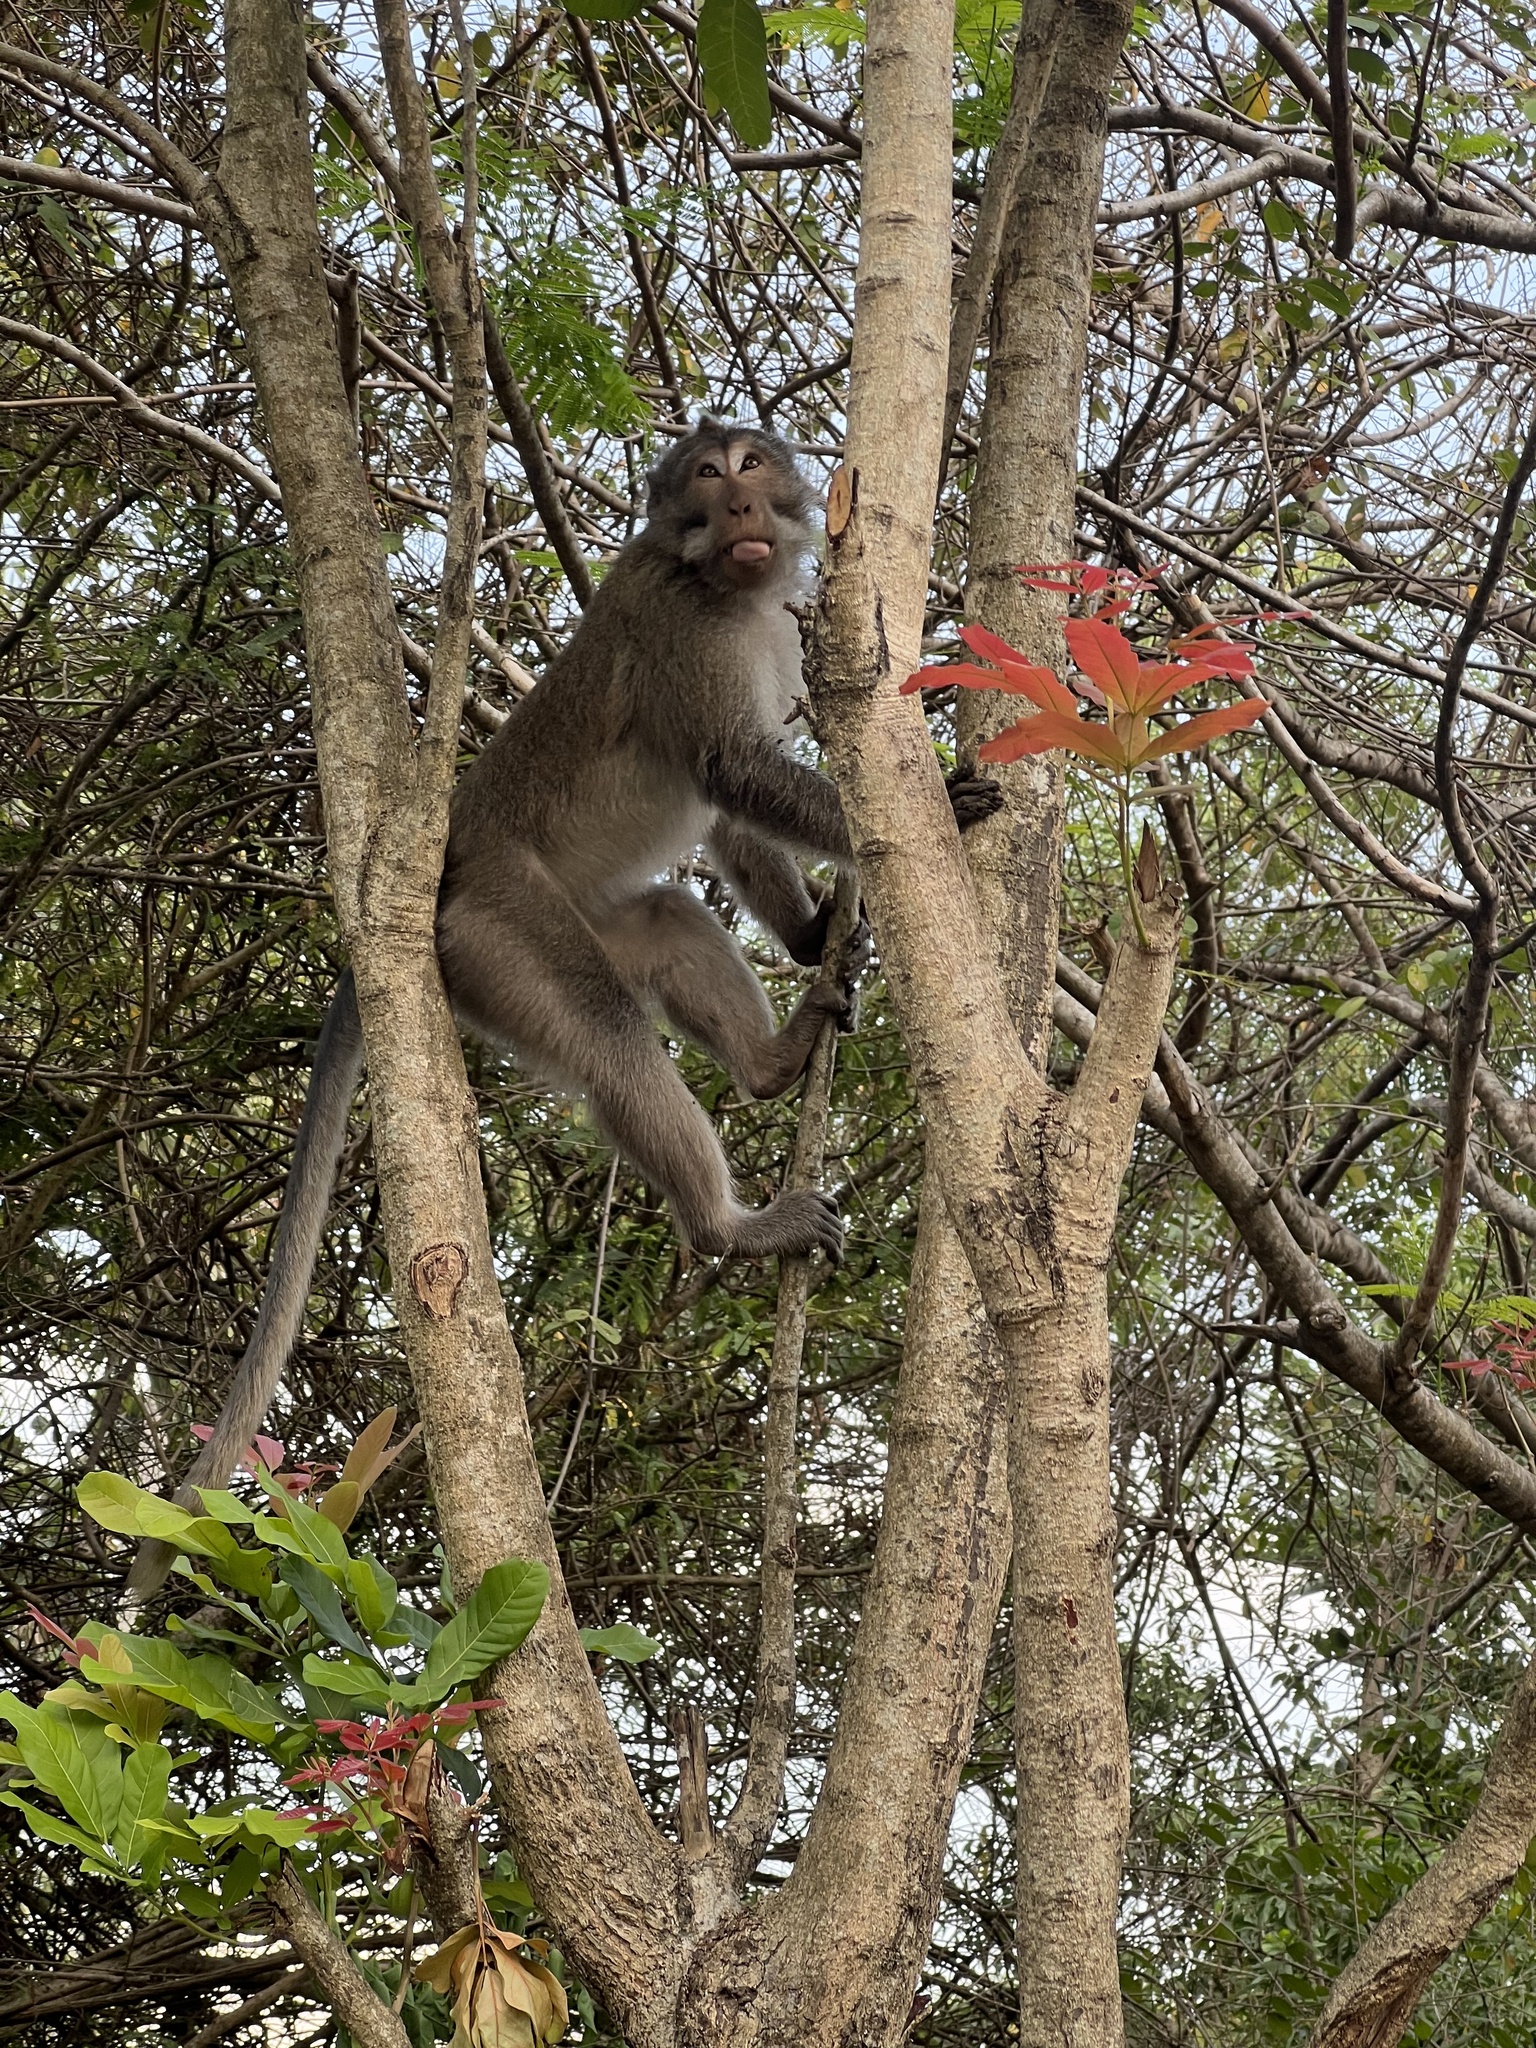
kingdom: Animalia
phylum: Chordata
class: Mammalia
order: Primates
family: Cercopithecidae
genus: Macaca
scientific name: Macaca fascicularis
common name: Crab-eating macaque
